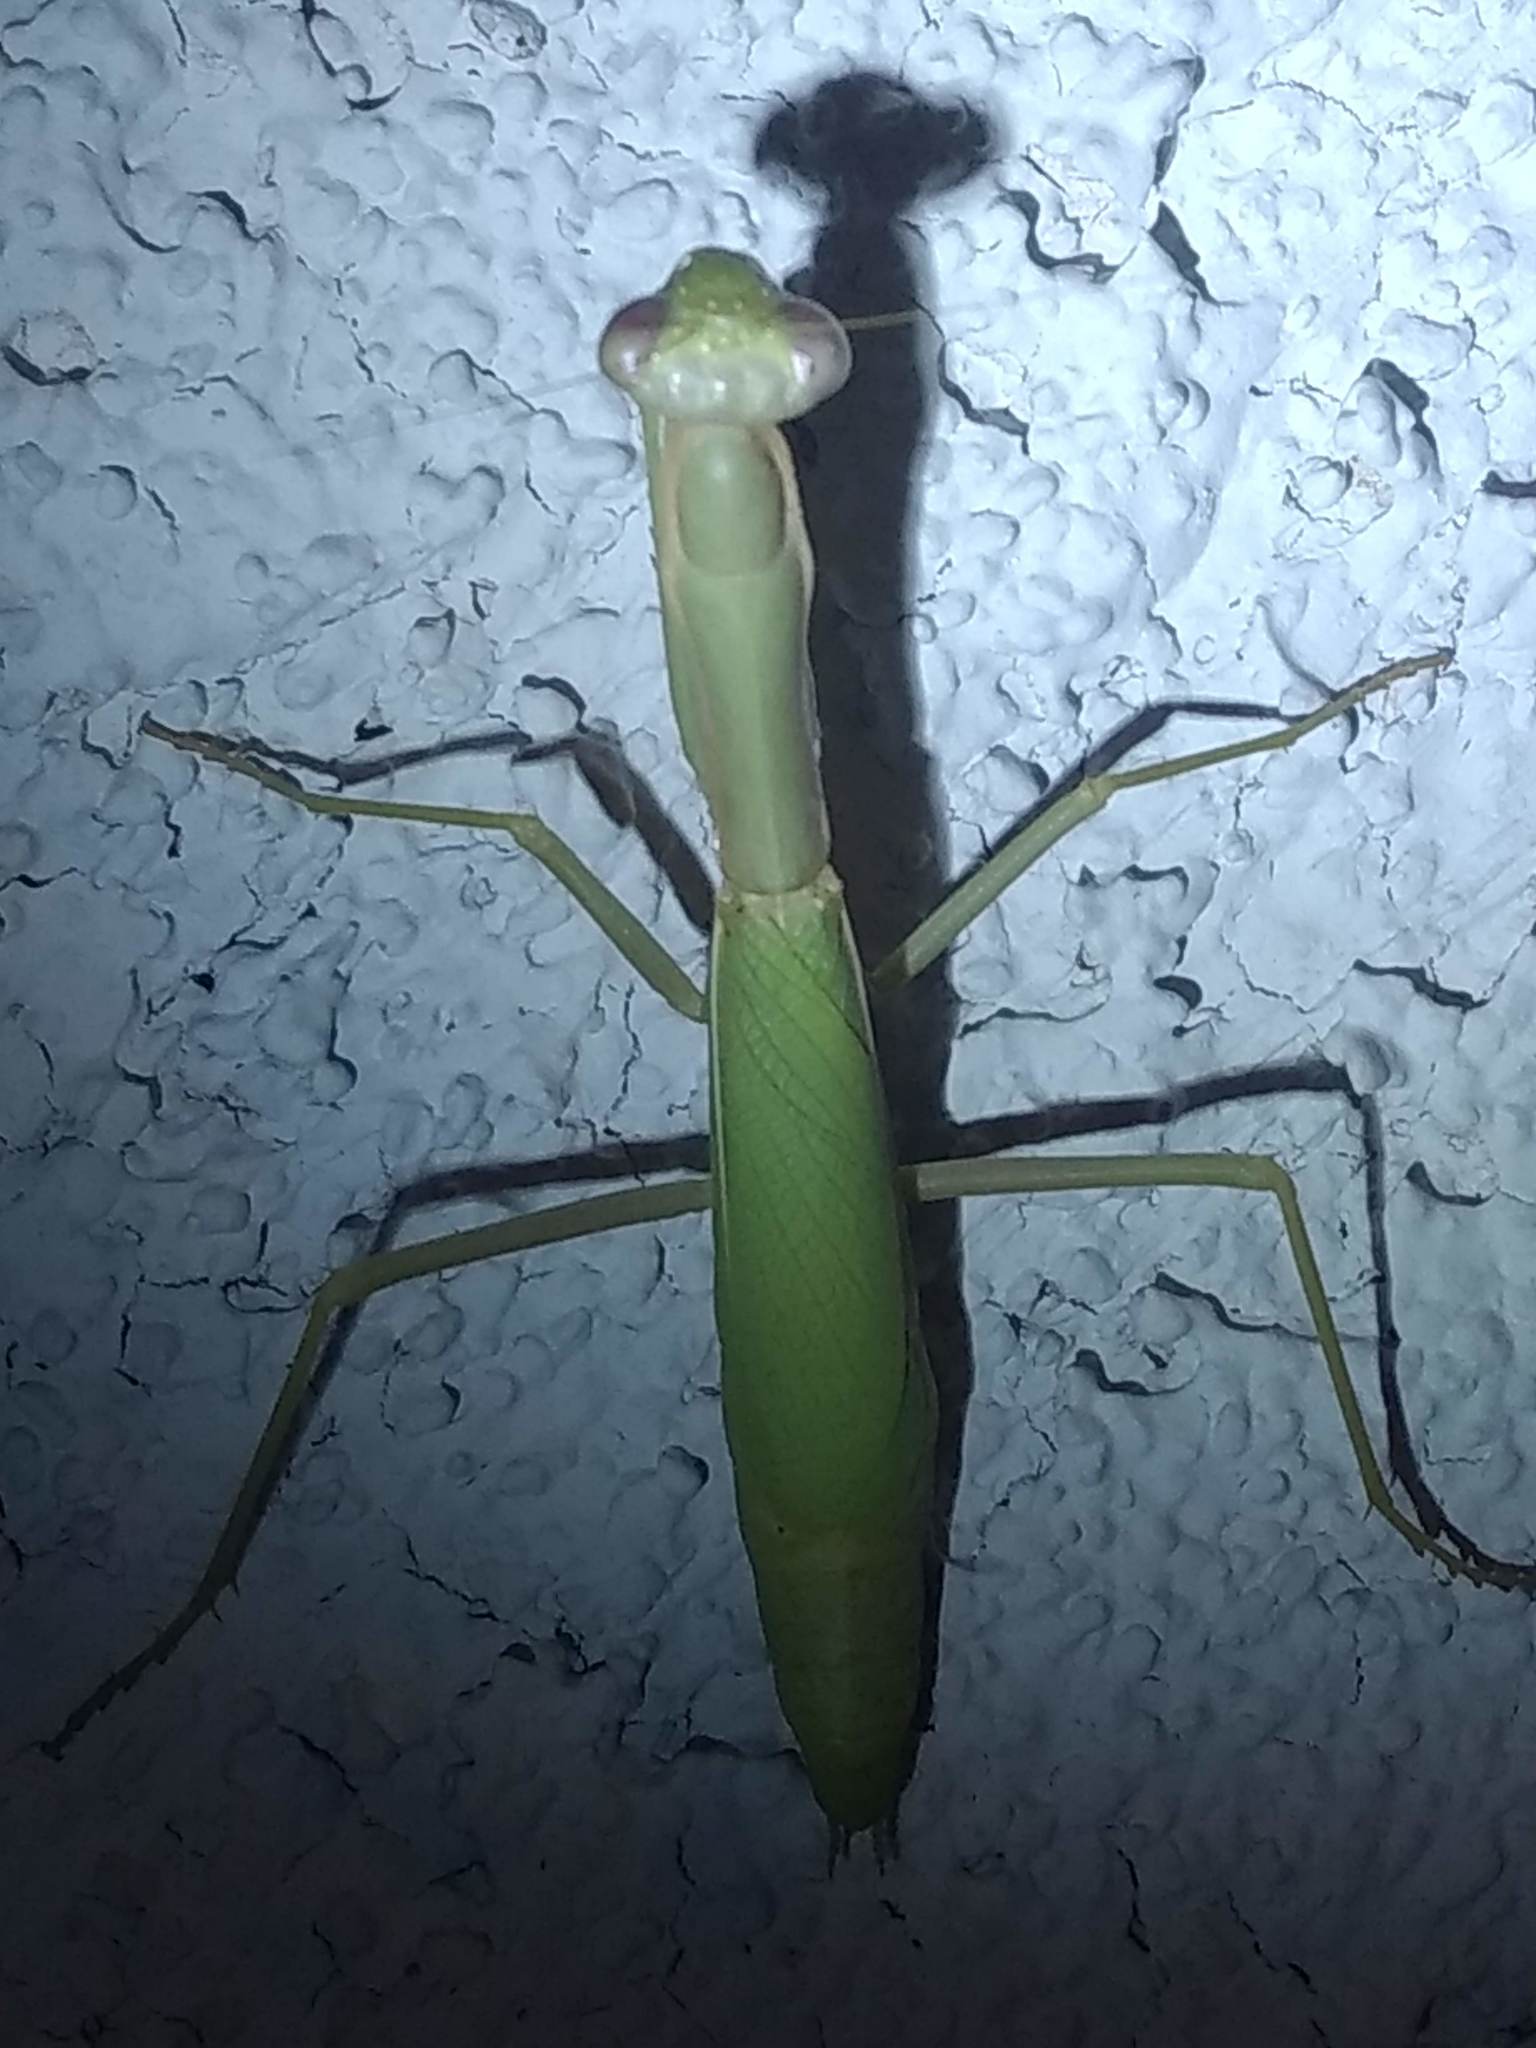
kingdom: Animalia
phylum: Arthropoda
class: Insecta
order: Mantodea
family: Eremiaphilidae
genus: Iris
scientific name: Iris oratoria
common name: Mediterranean mantis
